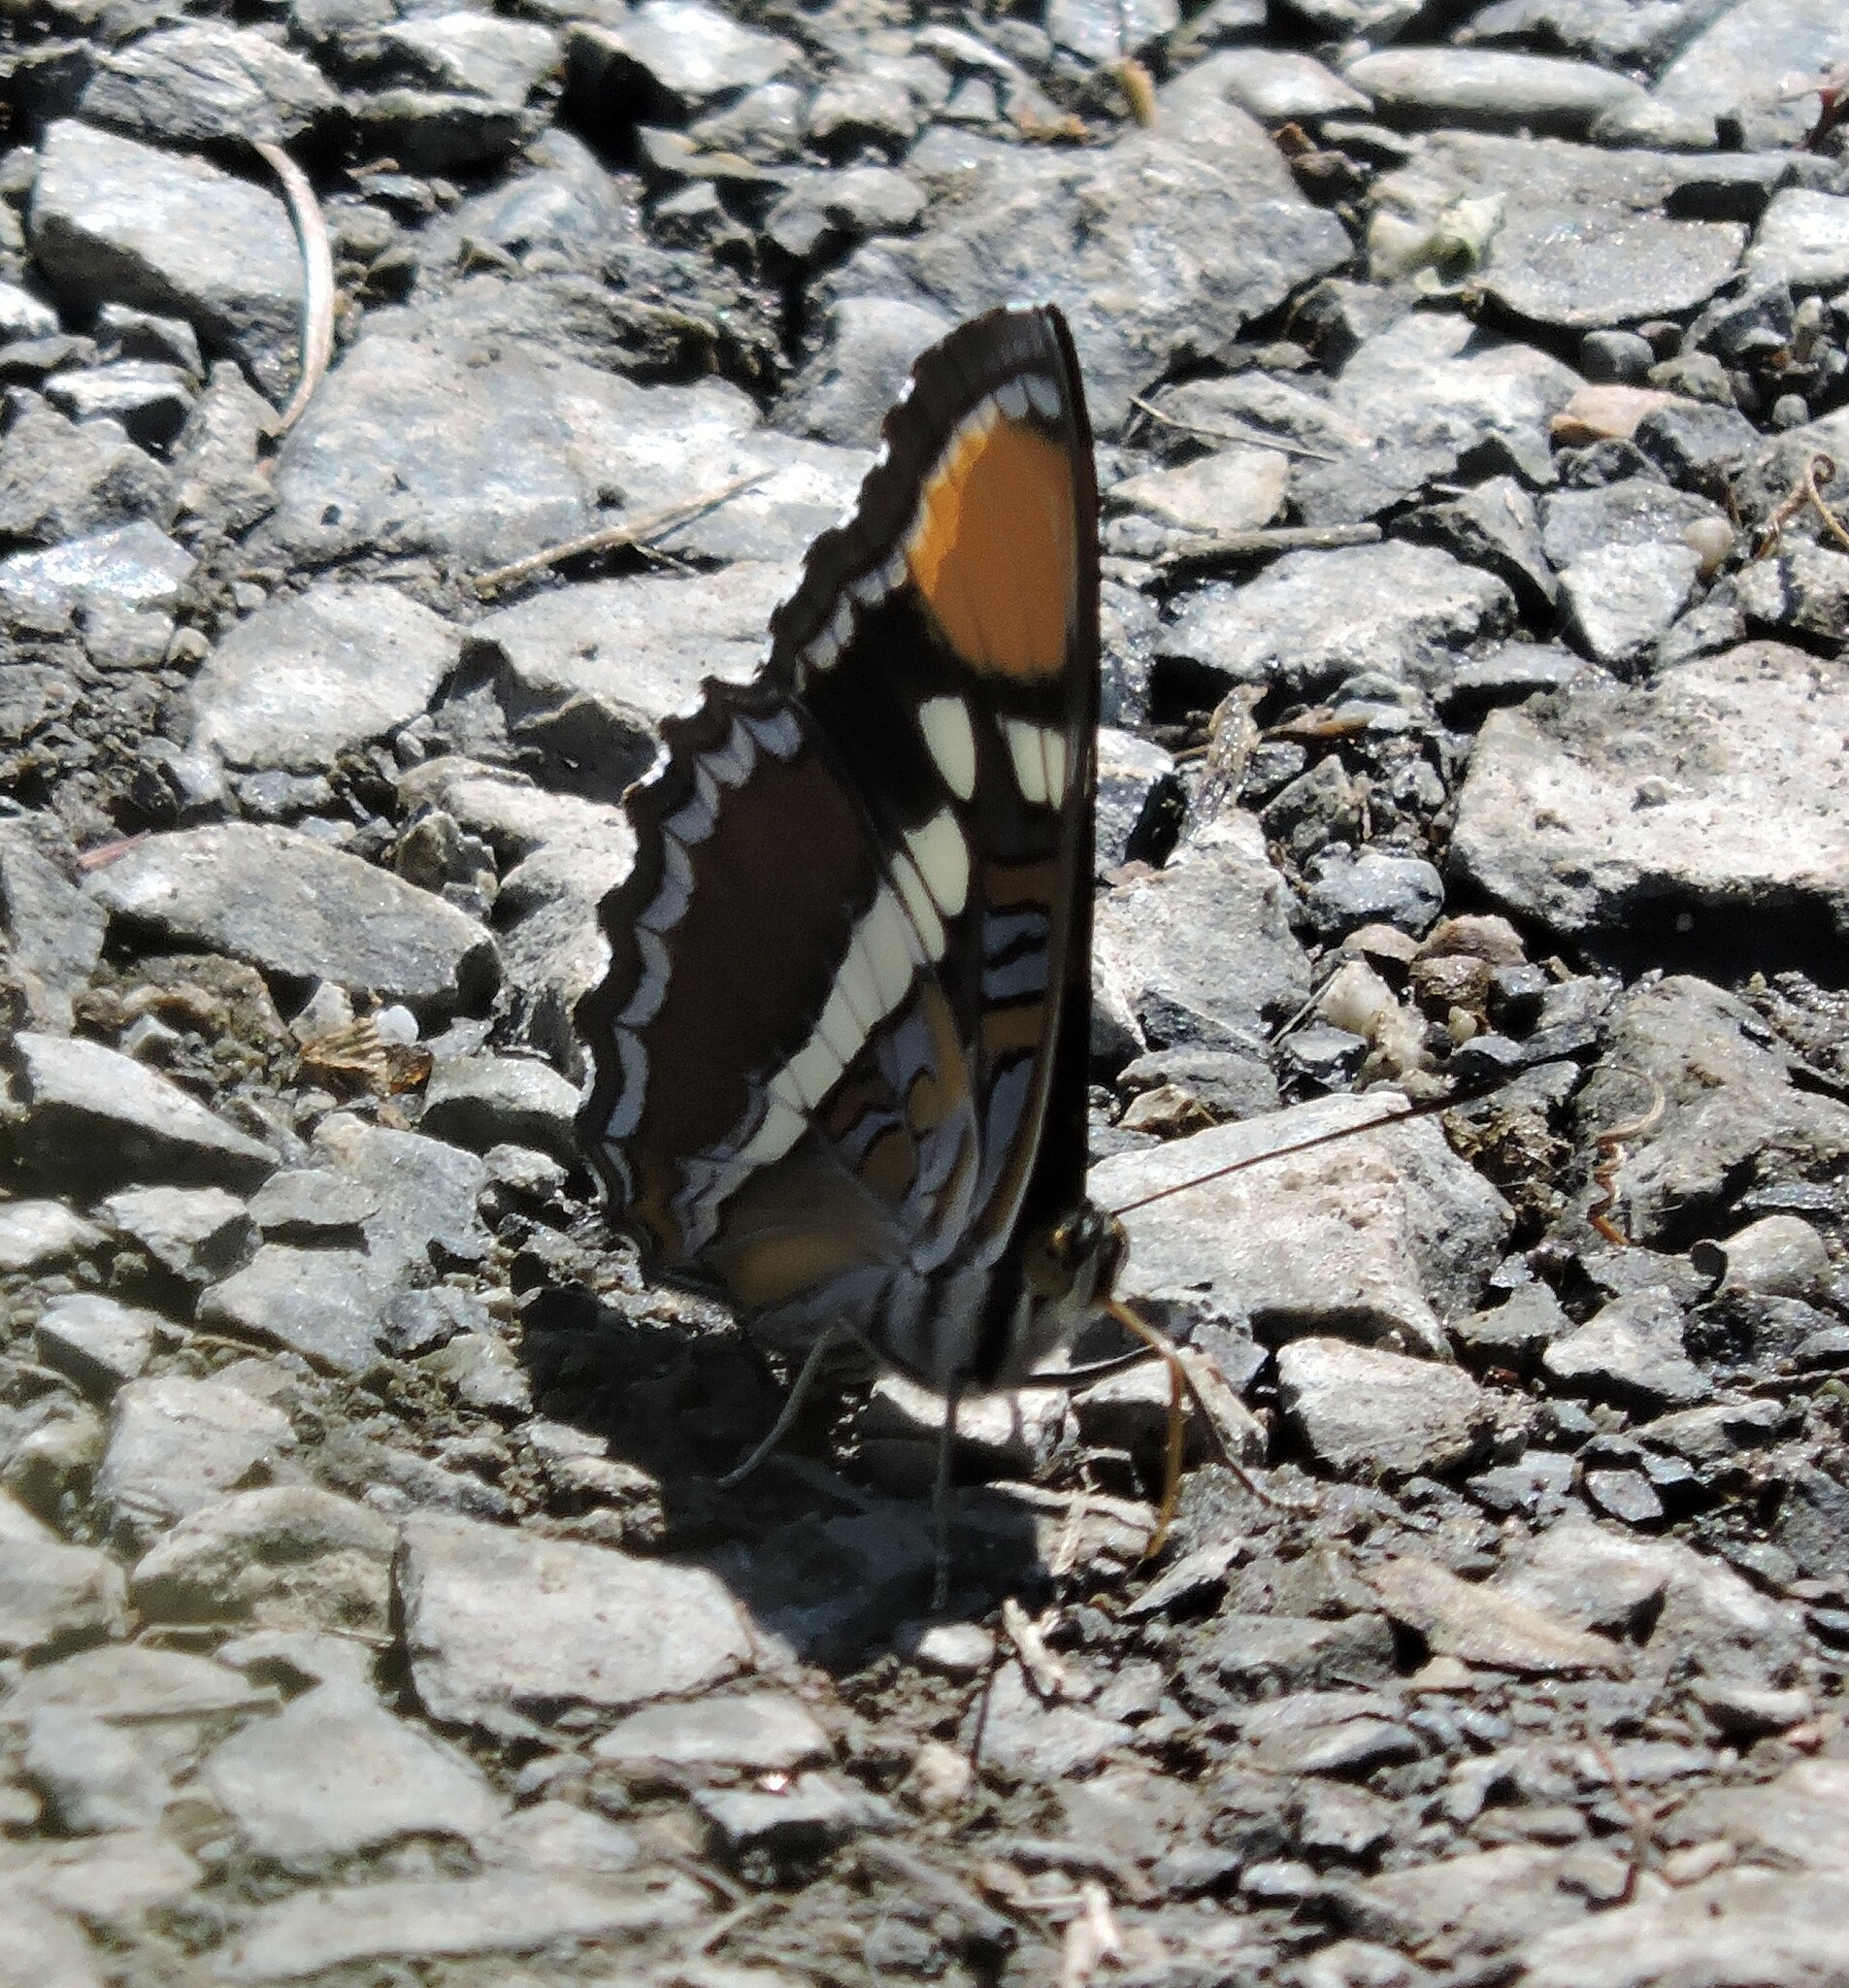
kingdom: Animalia
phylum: Arthropoda
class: Insecta
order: Lepidoptera
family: Nymphalidae
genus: Limenitis
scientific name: Limenitis bredowii
